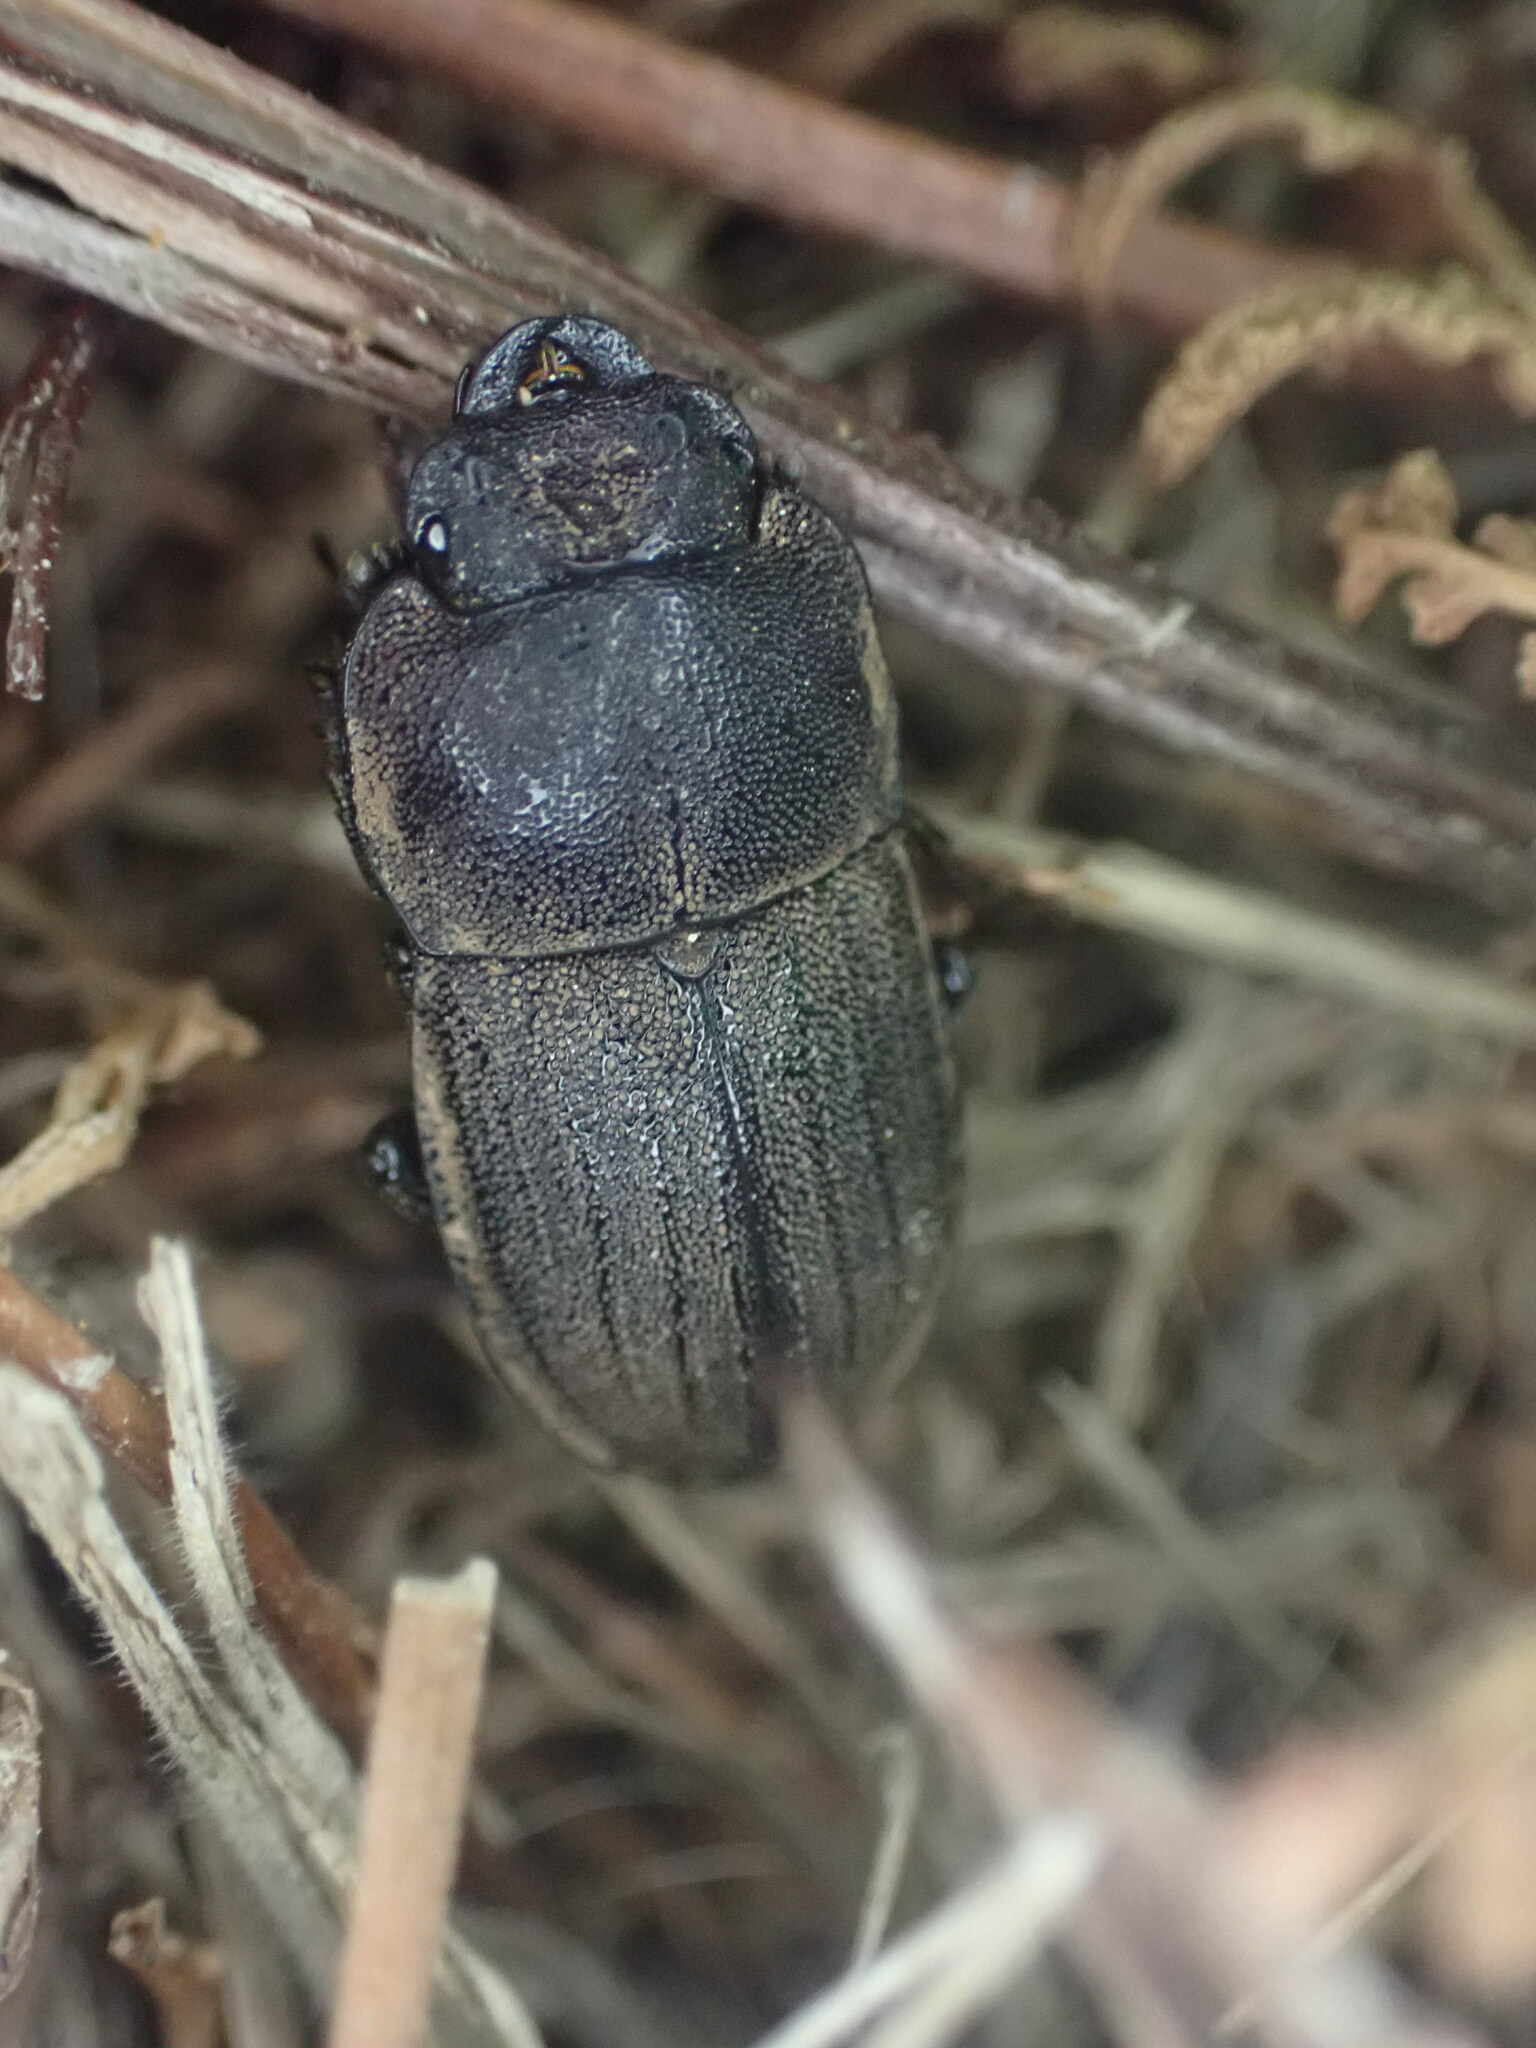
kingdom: Animalia
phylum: Arthropoda
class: Insecta
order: Coleoptera
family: Lucanidae
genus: Geodorcus
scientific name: Geodorcus novaezealandiae
